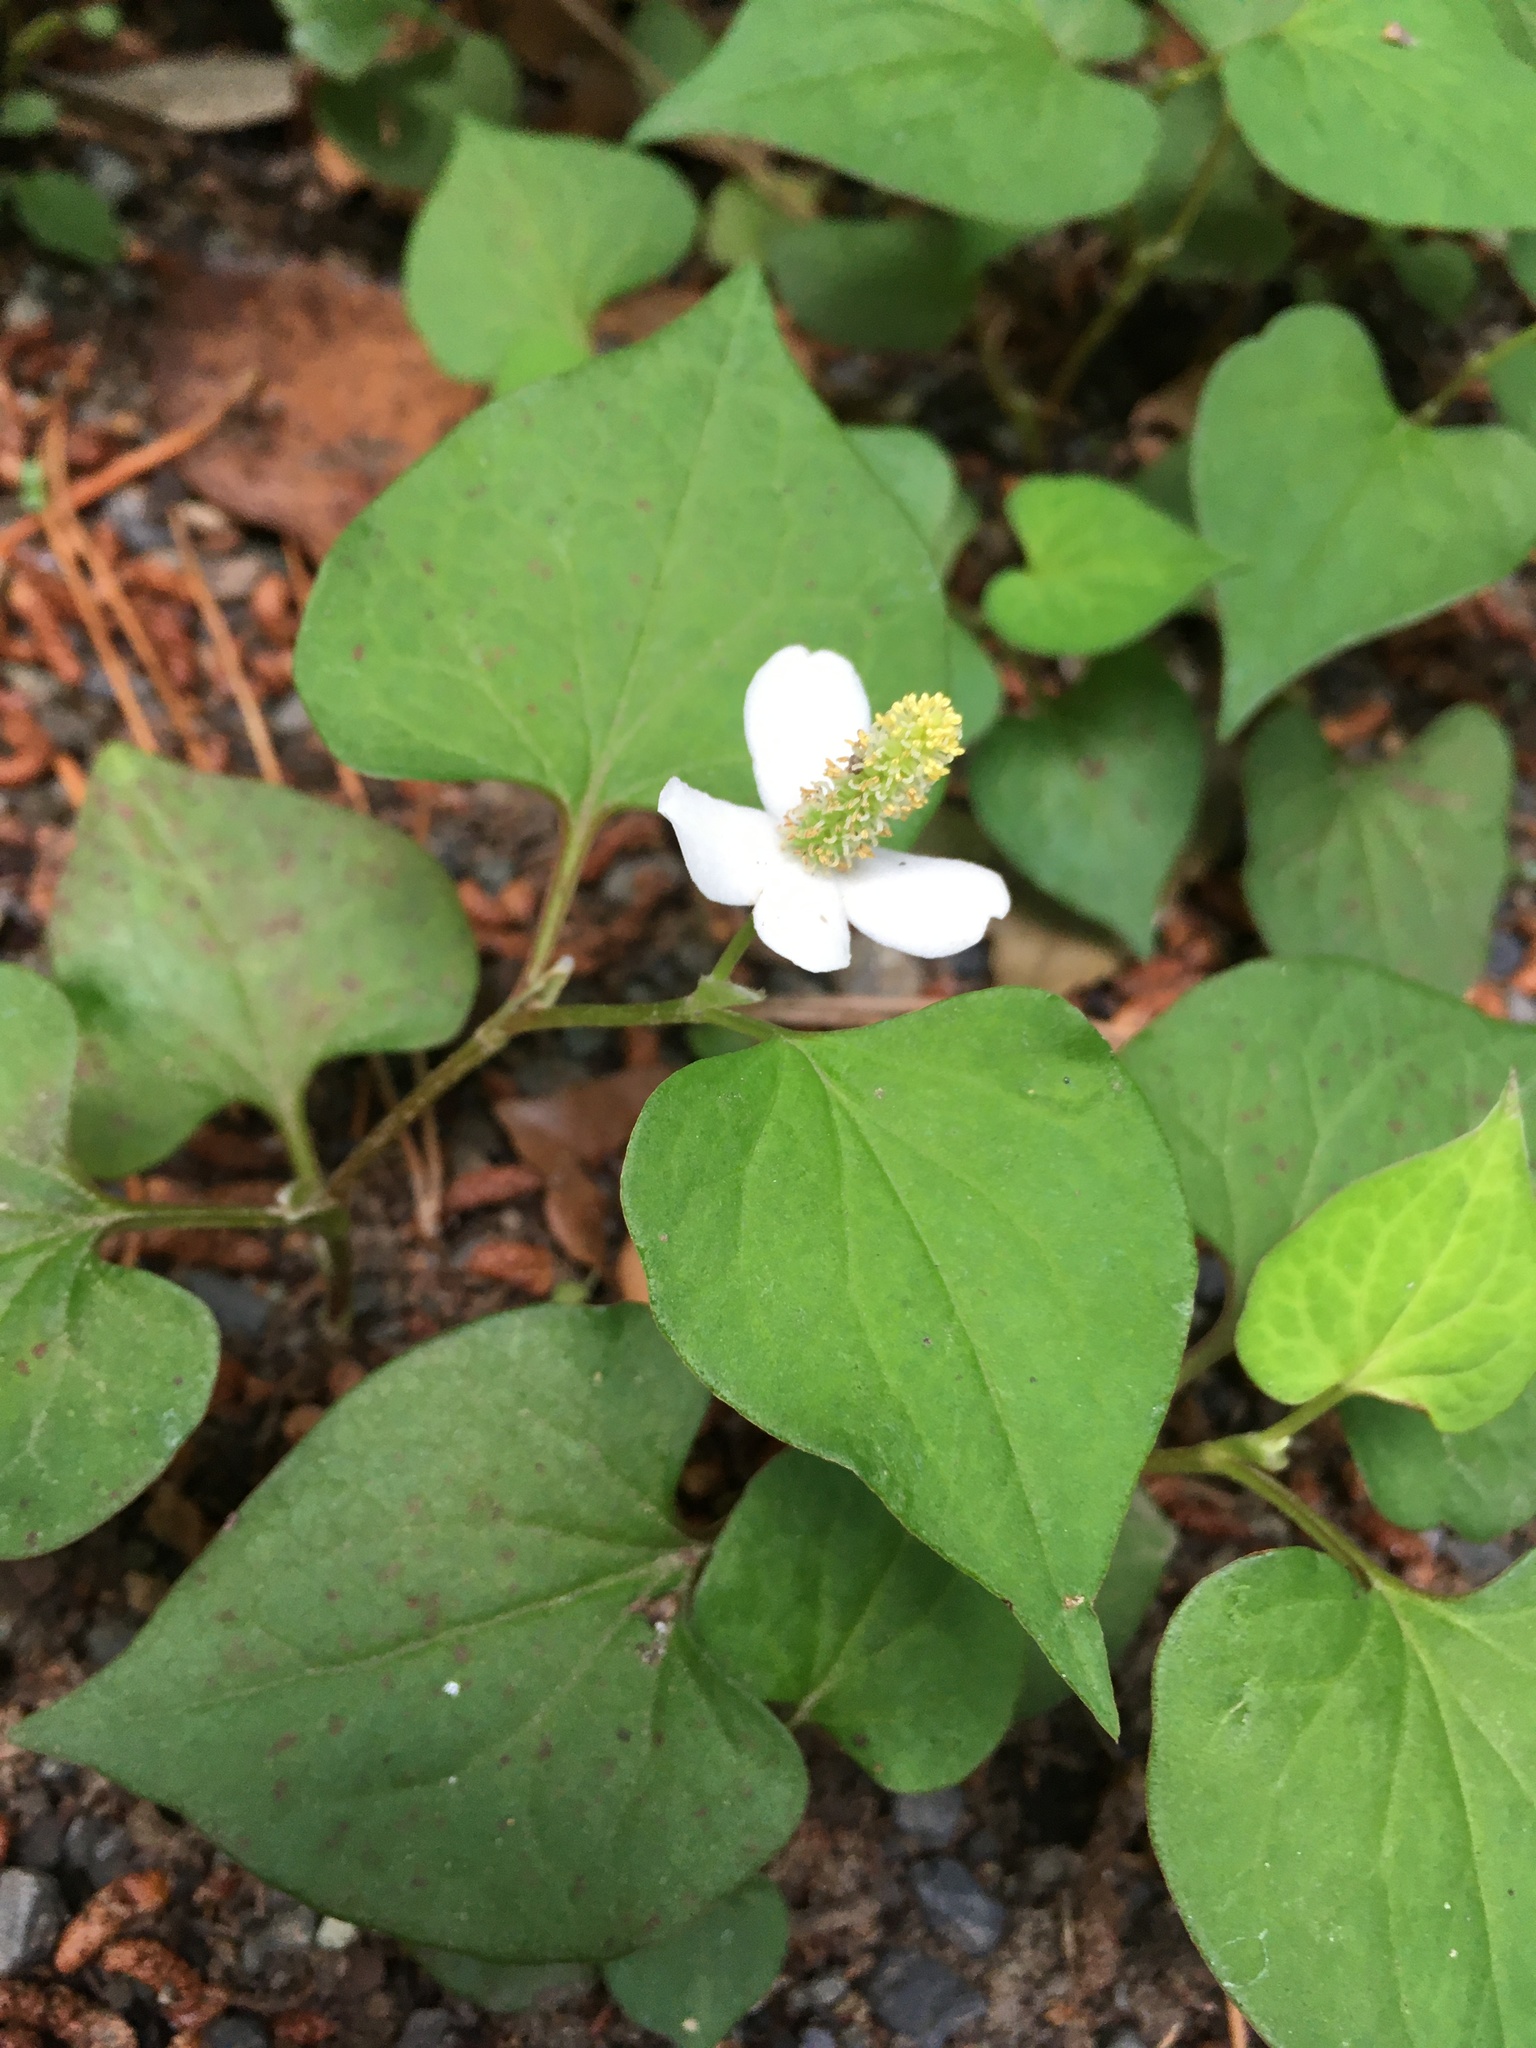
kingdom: Plantae
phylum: Tracheophyta
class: Magnoliopsida
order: Piperales
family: Saururaceae
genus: Houttuynia
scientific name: Houttuynia cordata
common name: Chameleon
